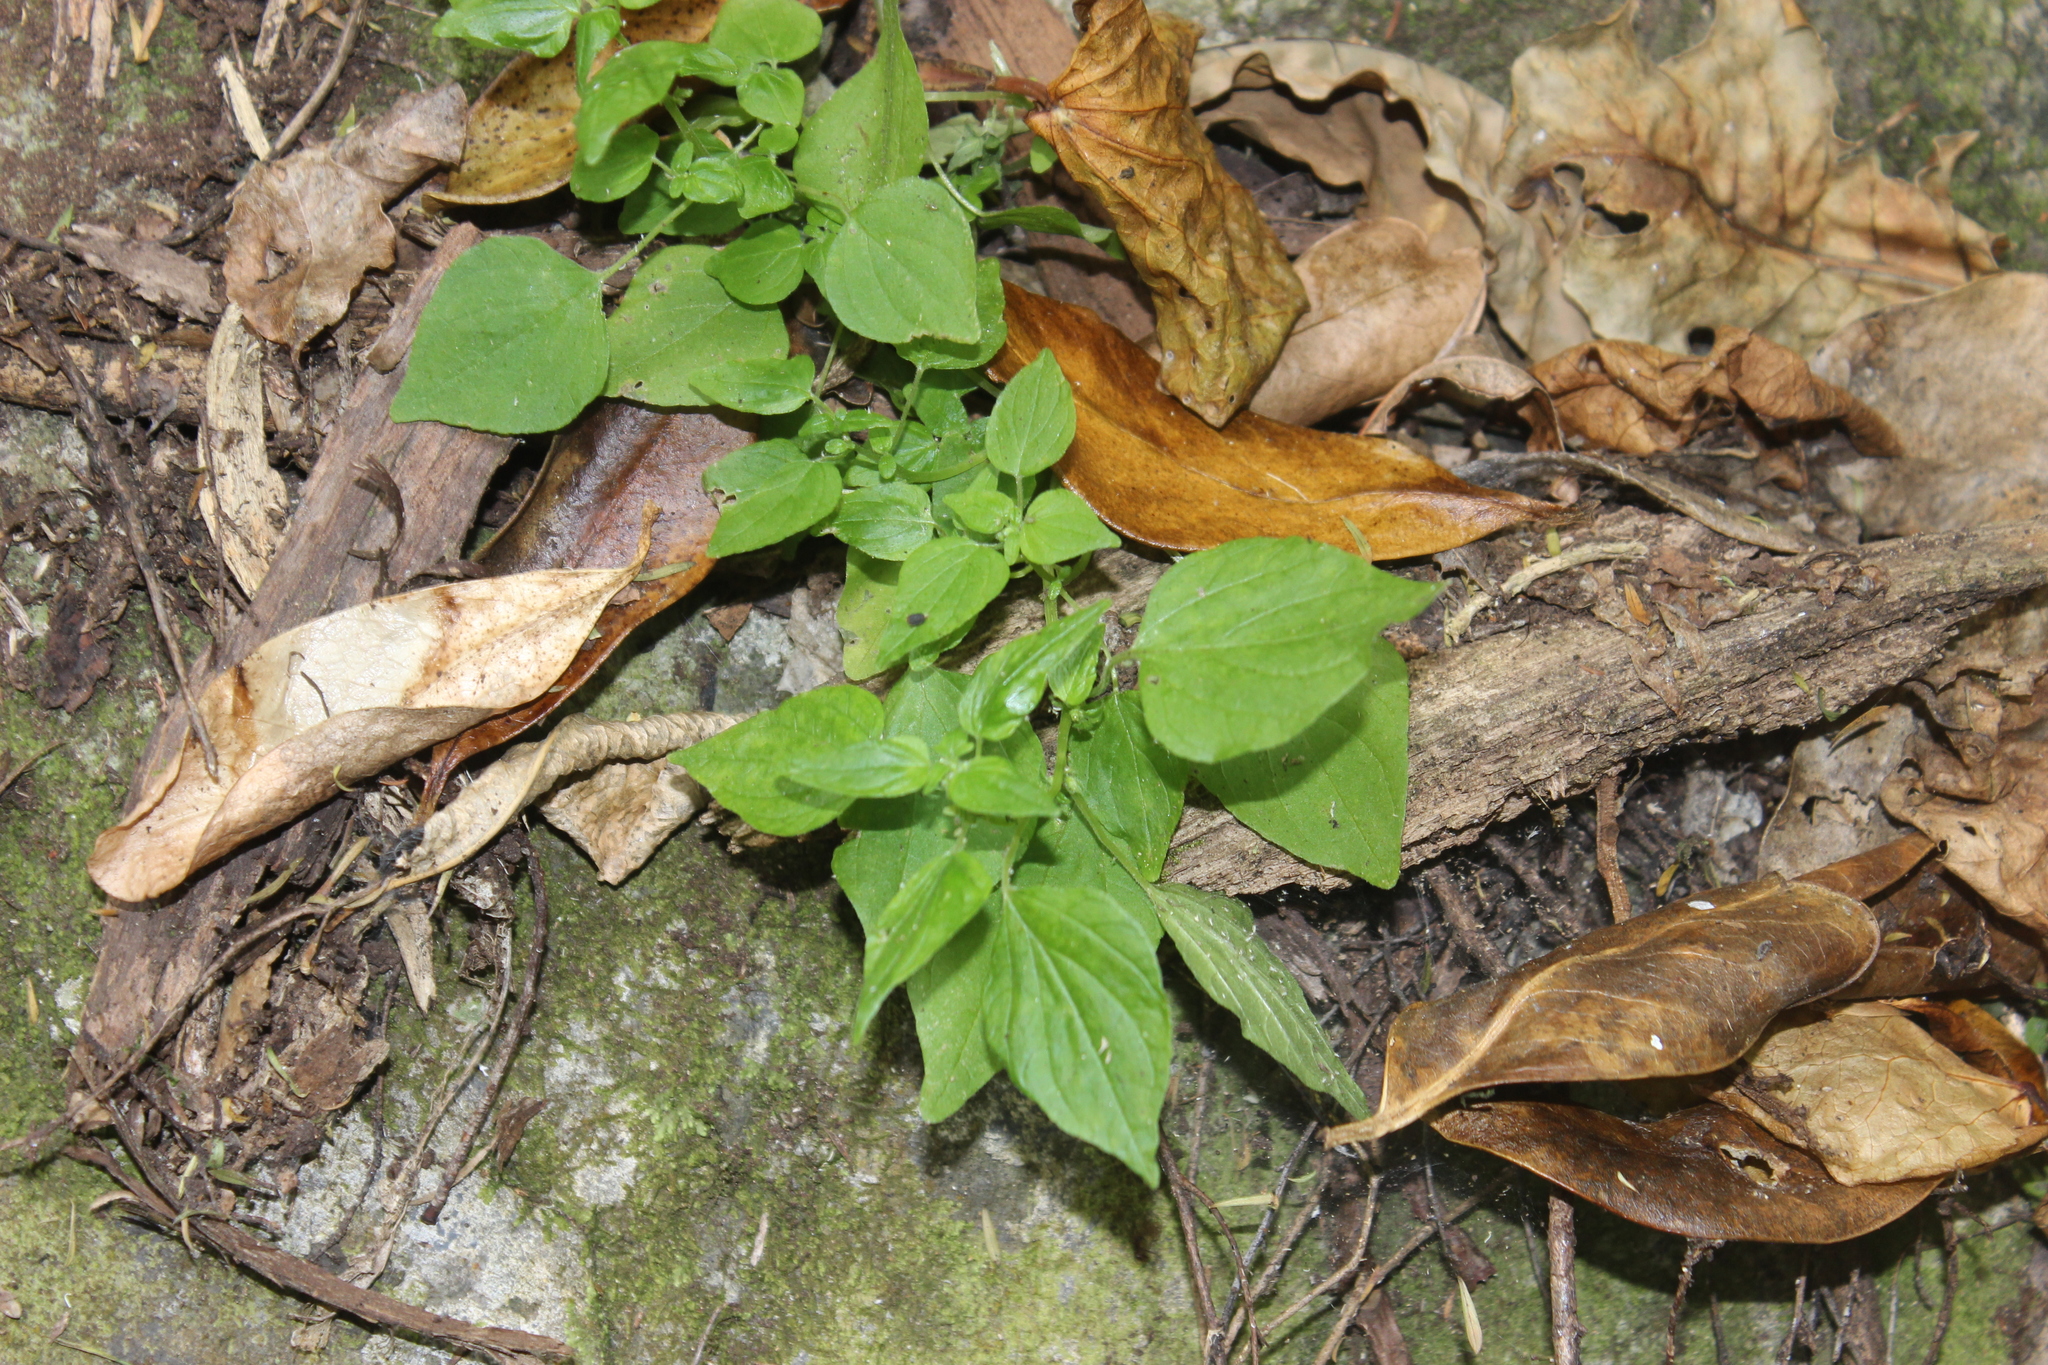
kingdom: Plantae
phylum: Tracheophyta
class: Magnoliopsida
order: Rosales
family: Urticaceae
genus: Parietaria
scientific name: Parietaria debilis
